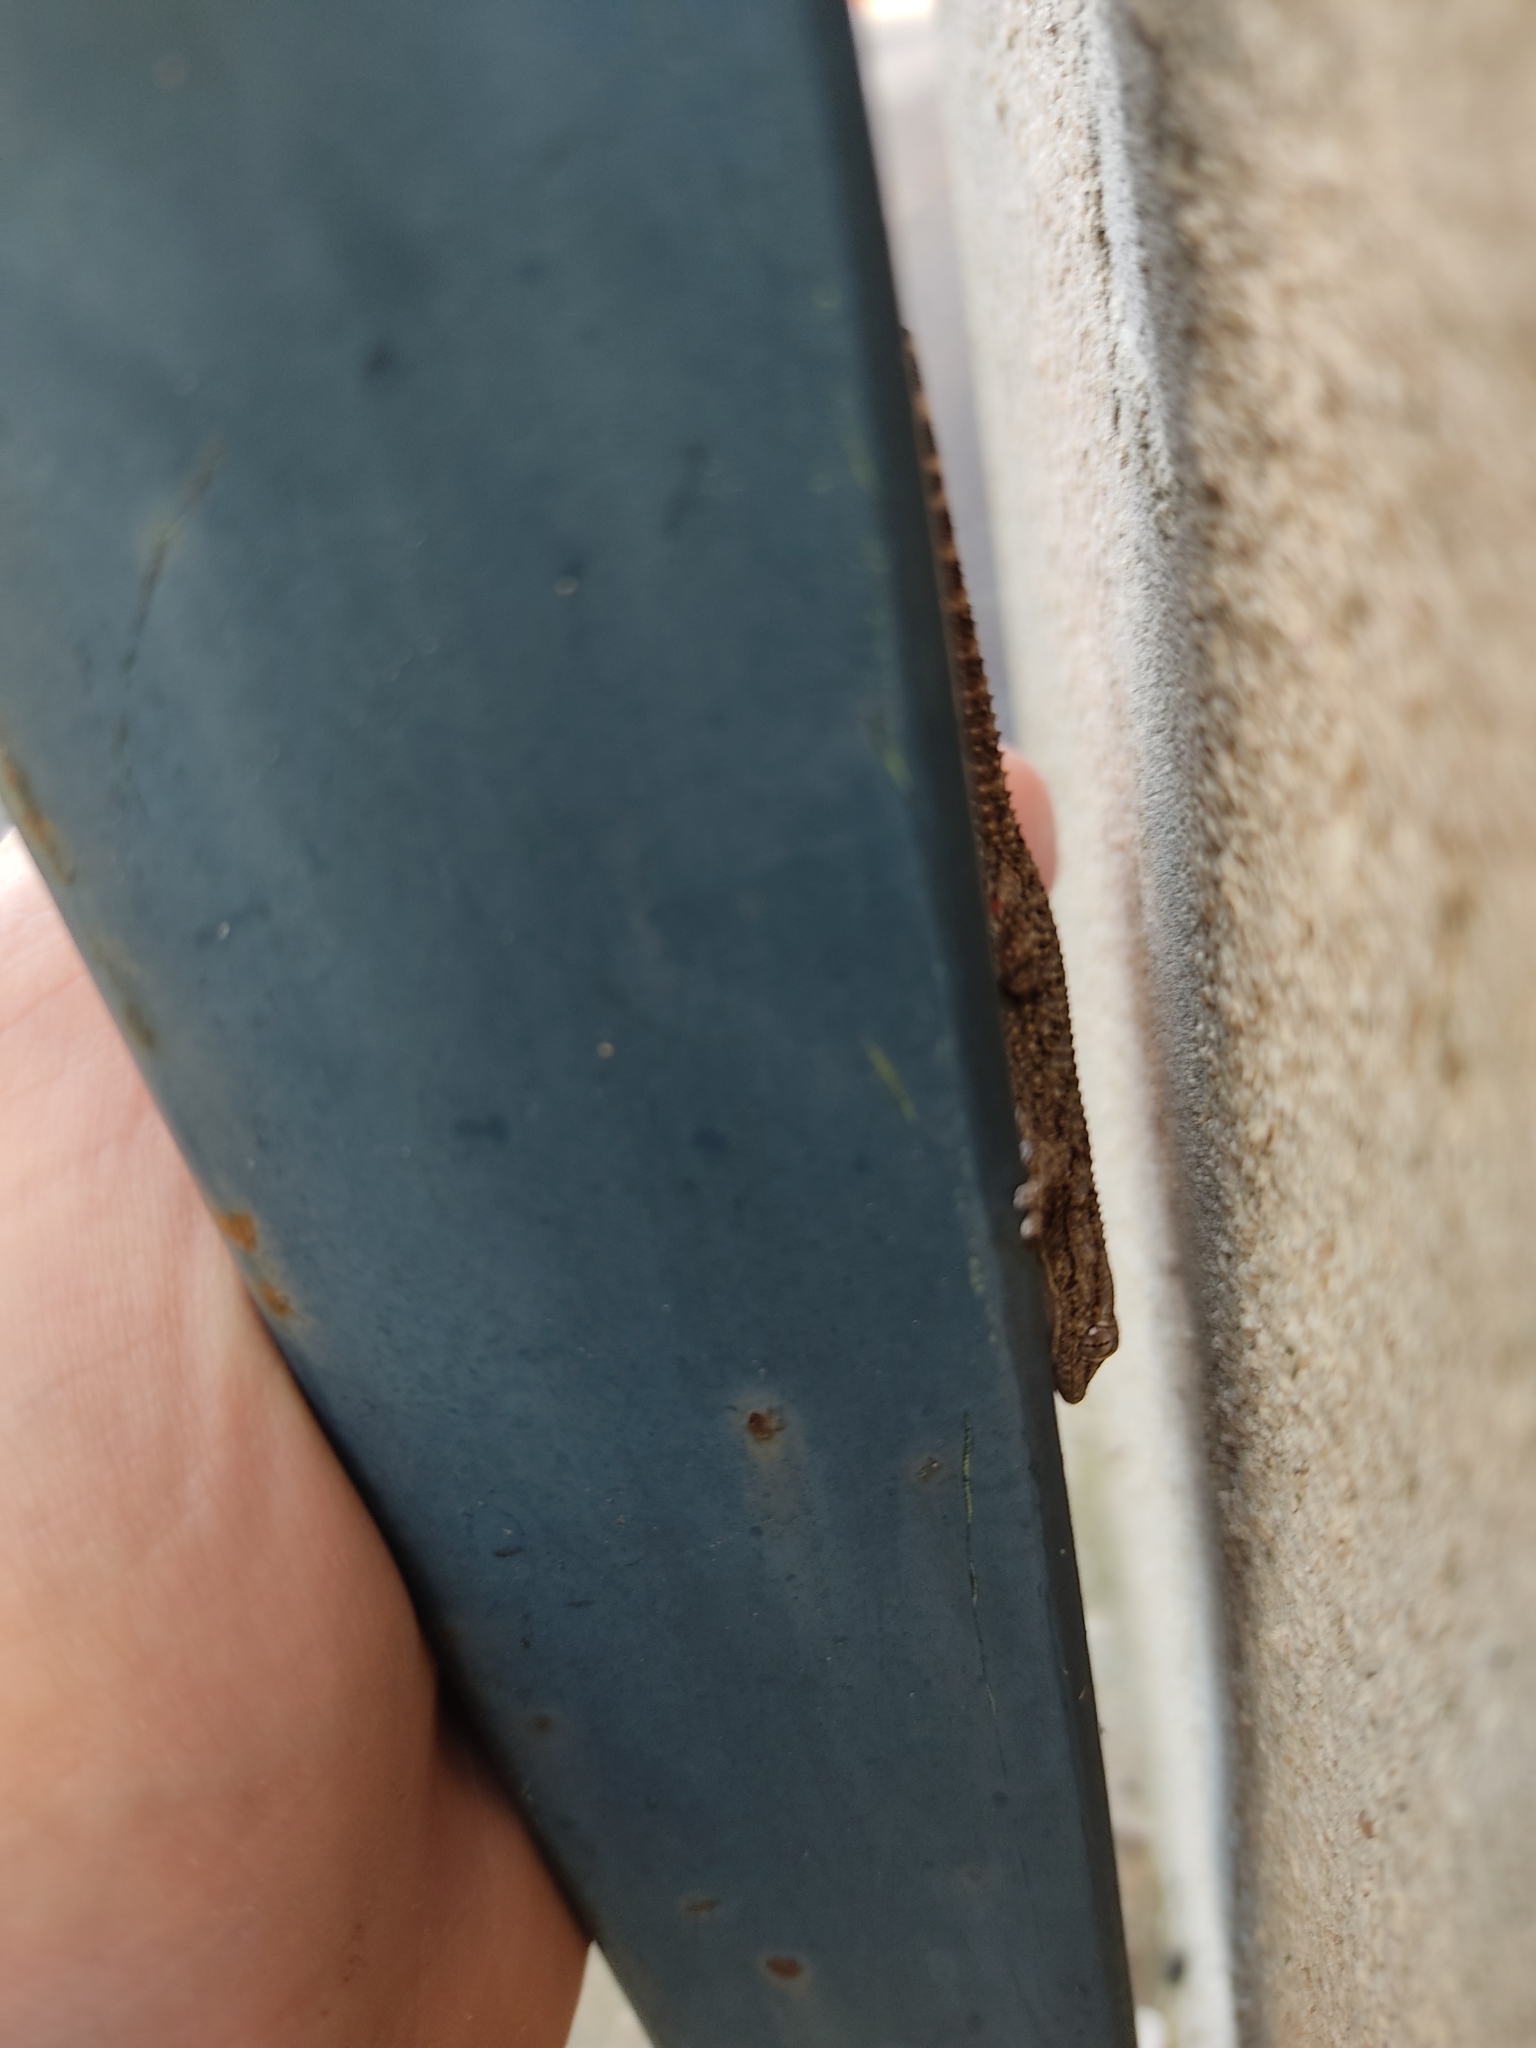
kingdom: Animalia
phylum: Chordata
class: Squamata
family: Phyllodactylidae
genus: Tarentola
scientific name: Tarentola mauritanica
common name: Moorish gecko
